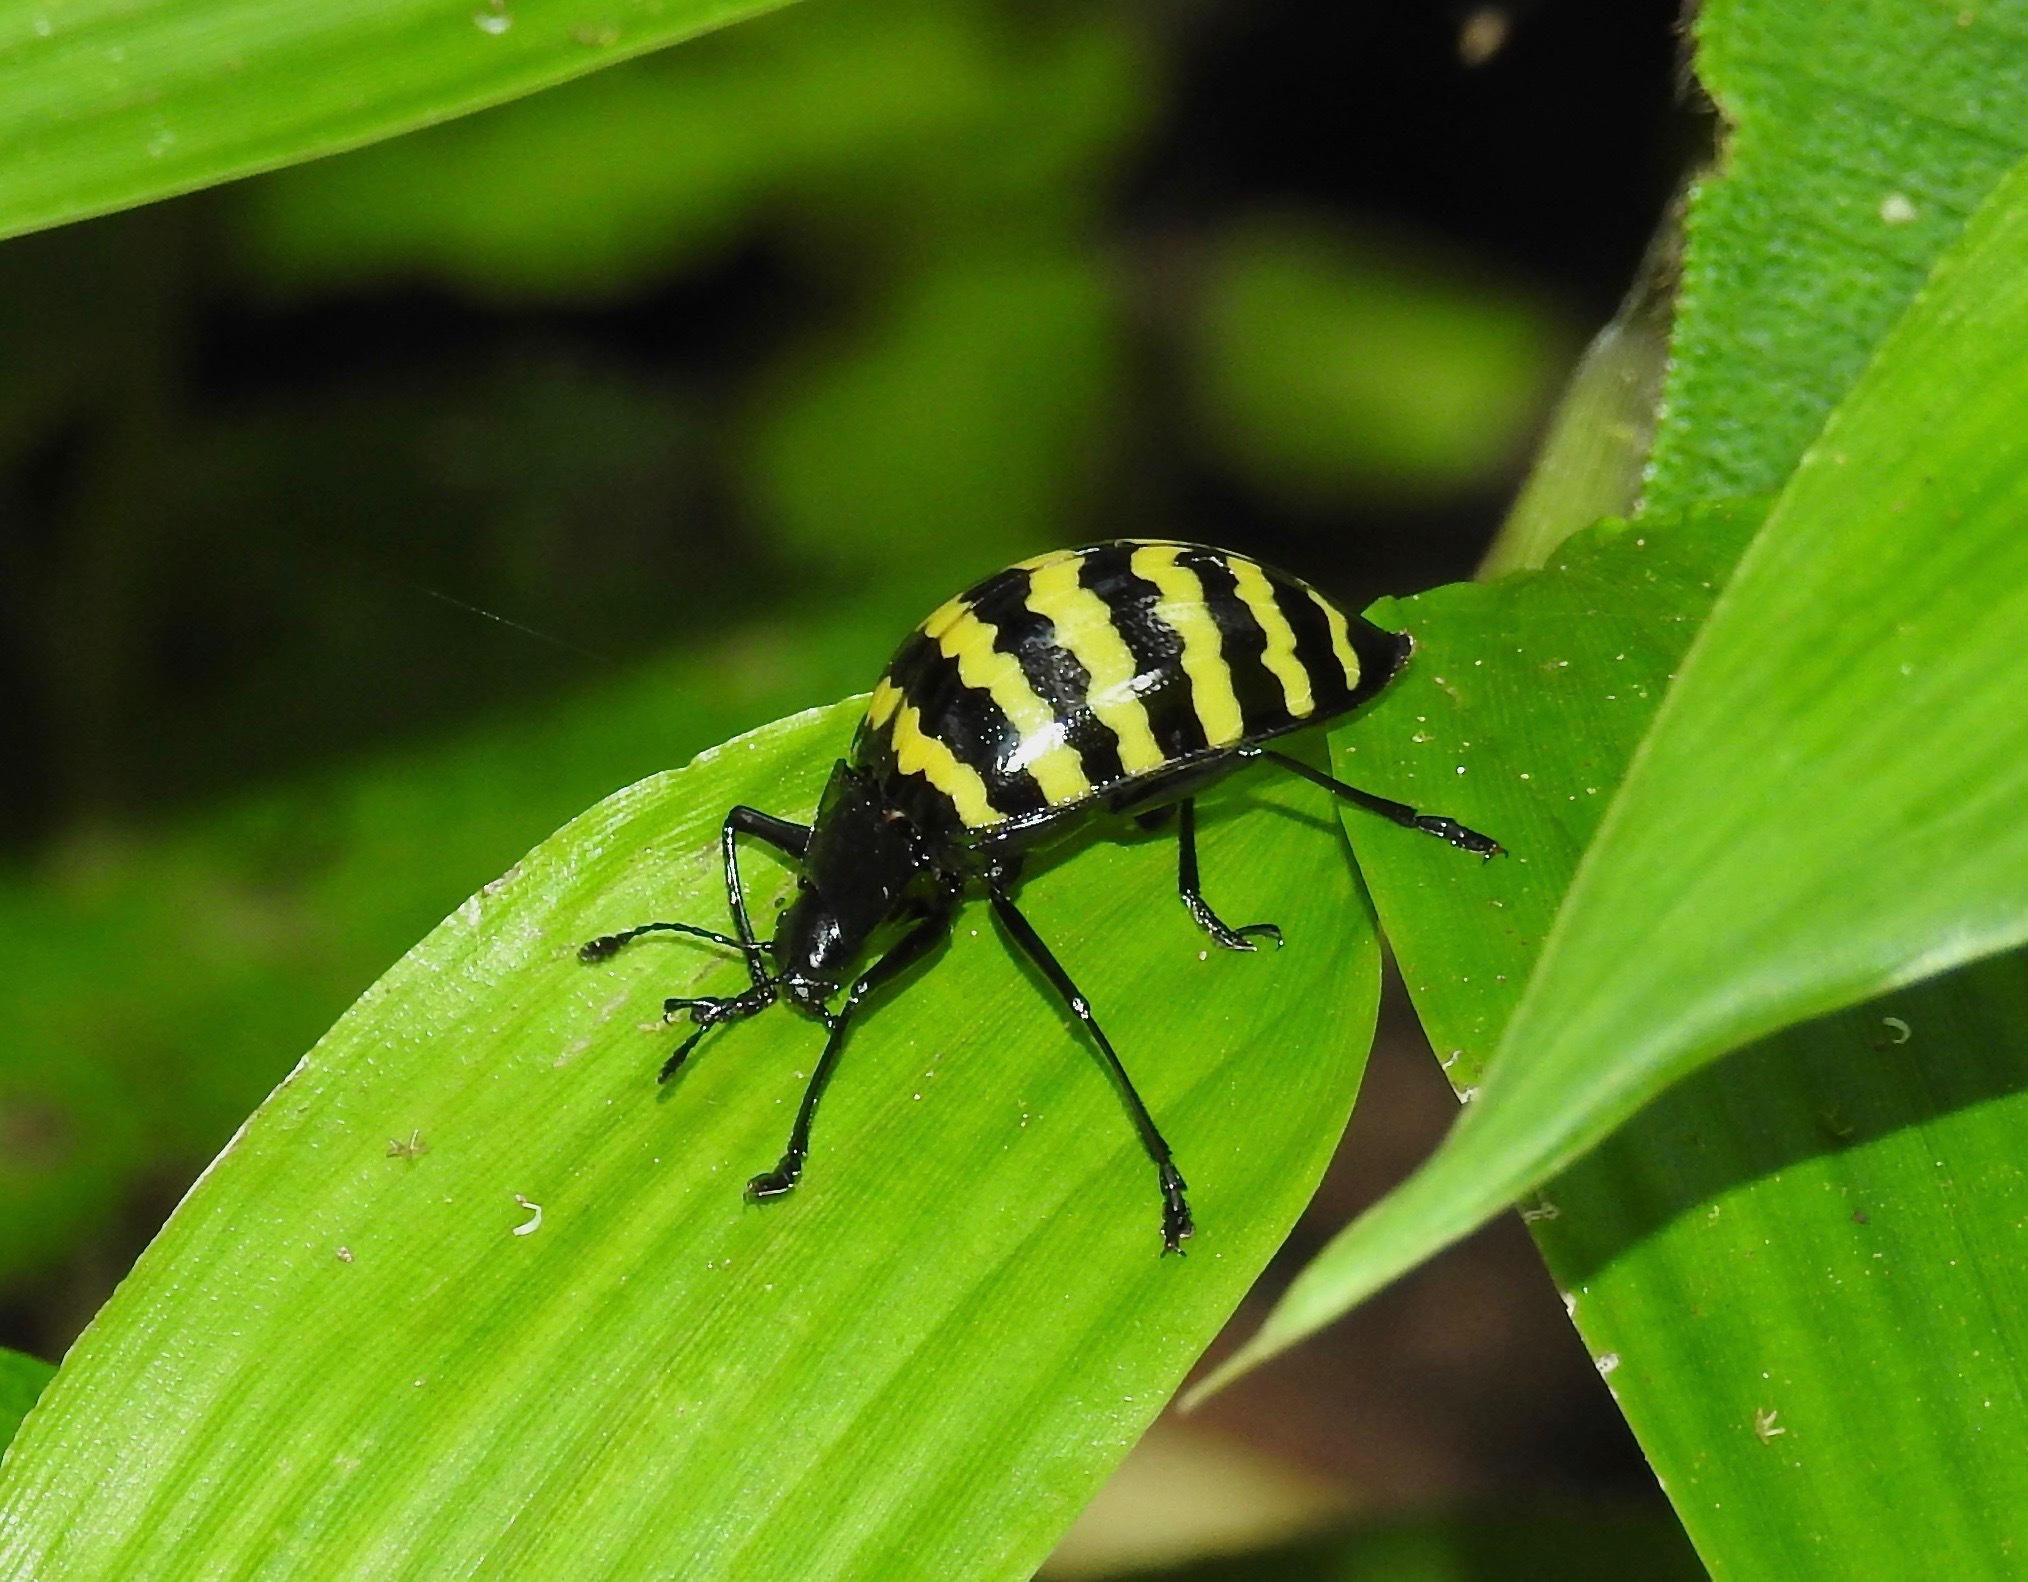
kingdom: Animalia
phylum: Arthropoda
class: Insecta
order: Coleoptera
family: Erotylidae
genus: Erotylus
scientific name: Erotylus
